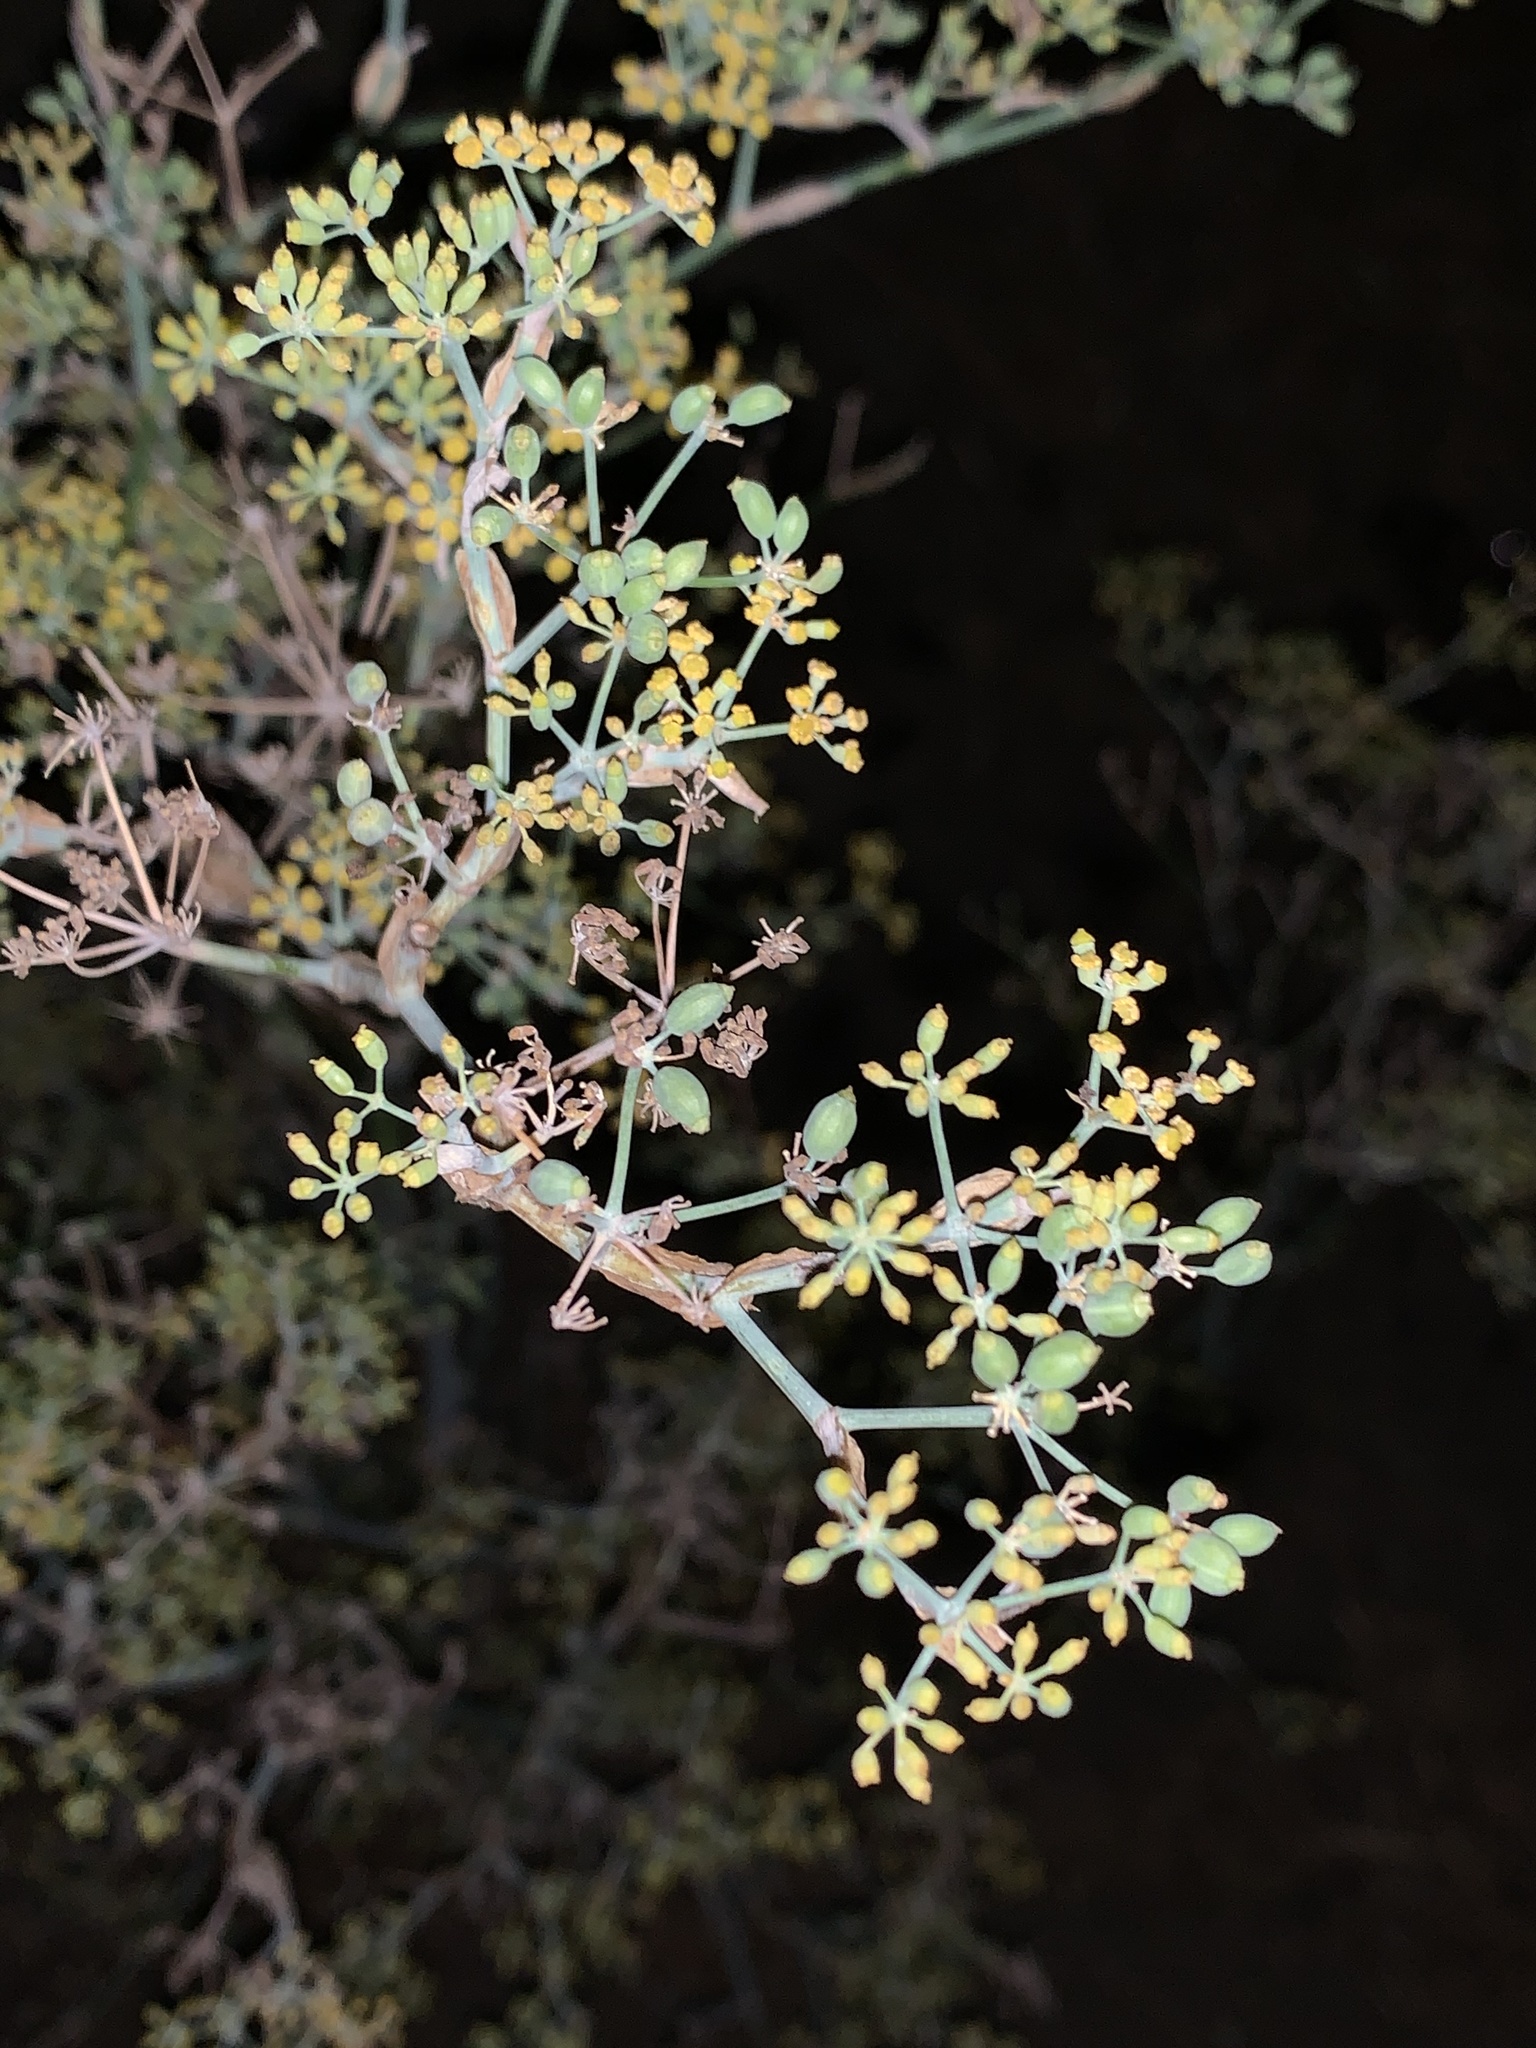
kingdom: Plantae
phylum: Tracheophyta
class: Magnoliopsida
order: Apiales
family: Apiaceae
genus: Foeniculum
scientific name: Foeniculum vulgare
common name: Fennel
